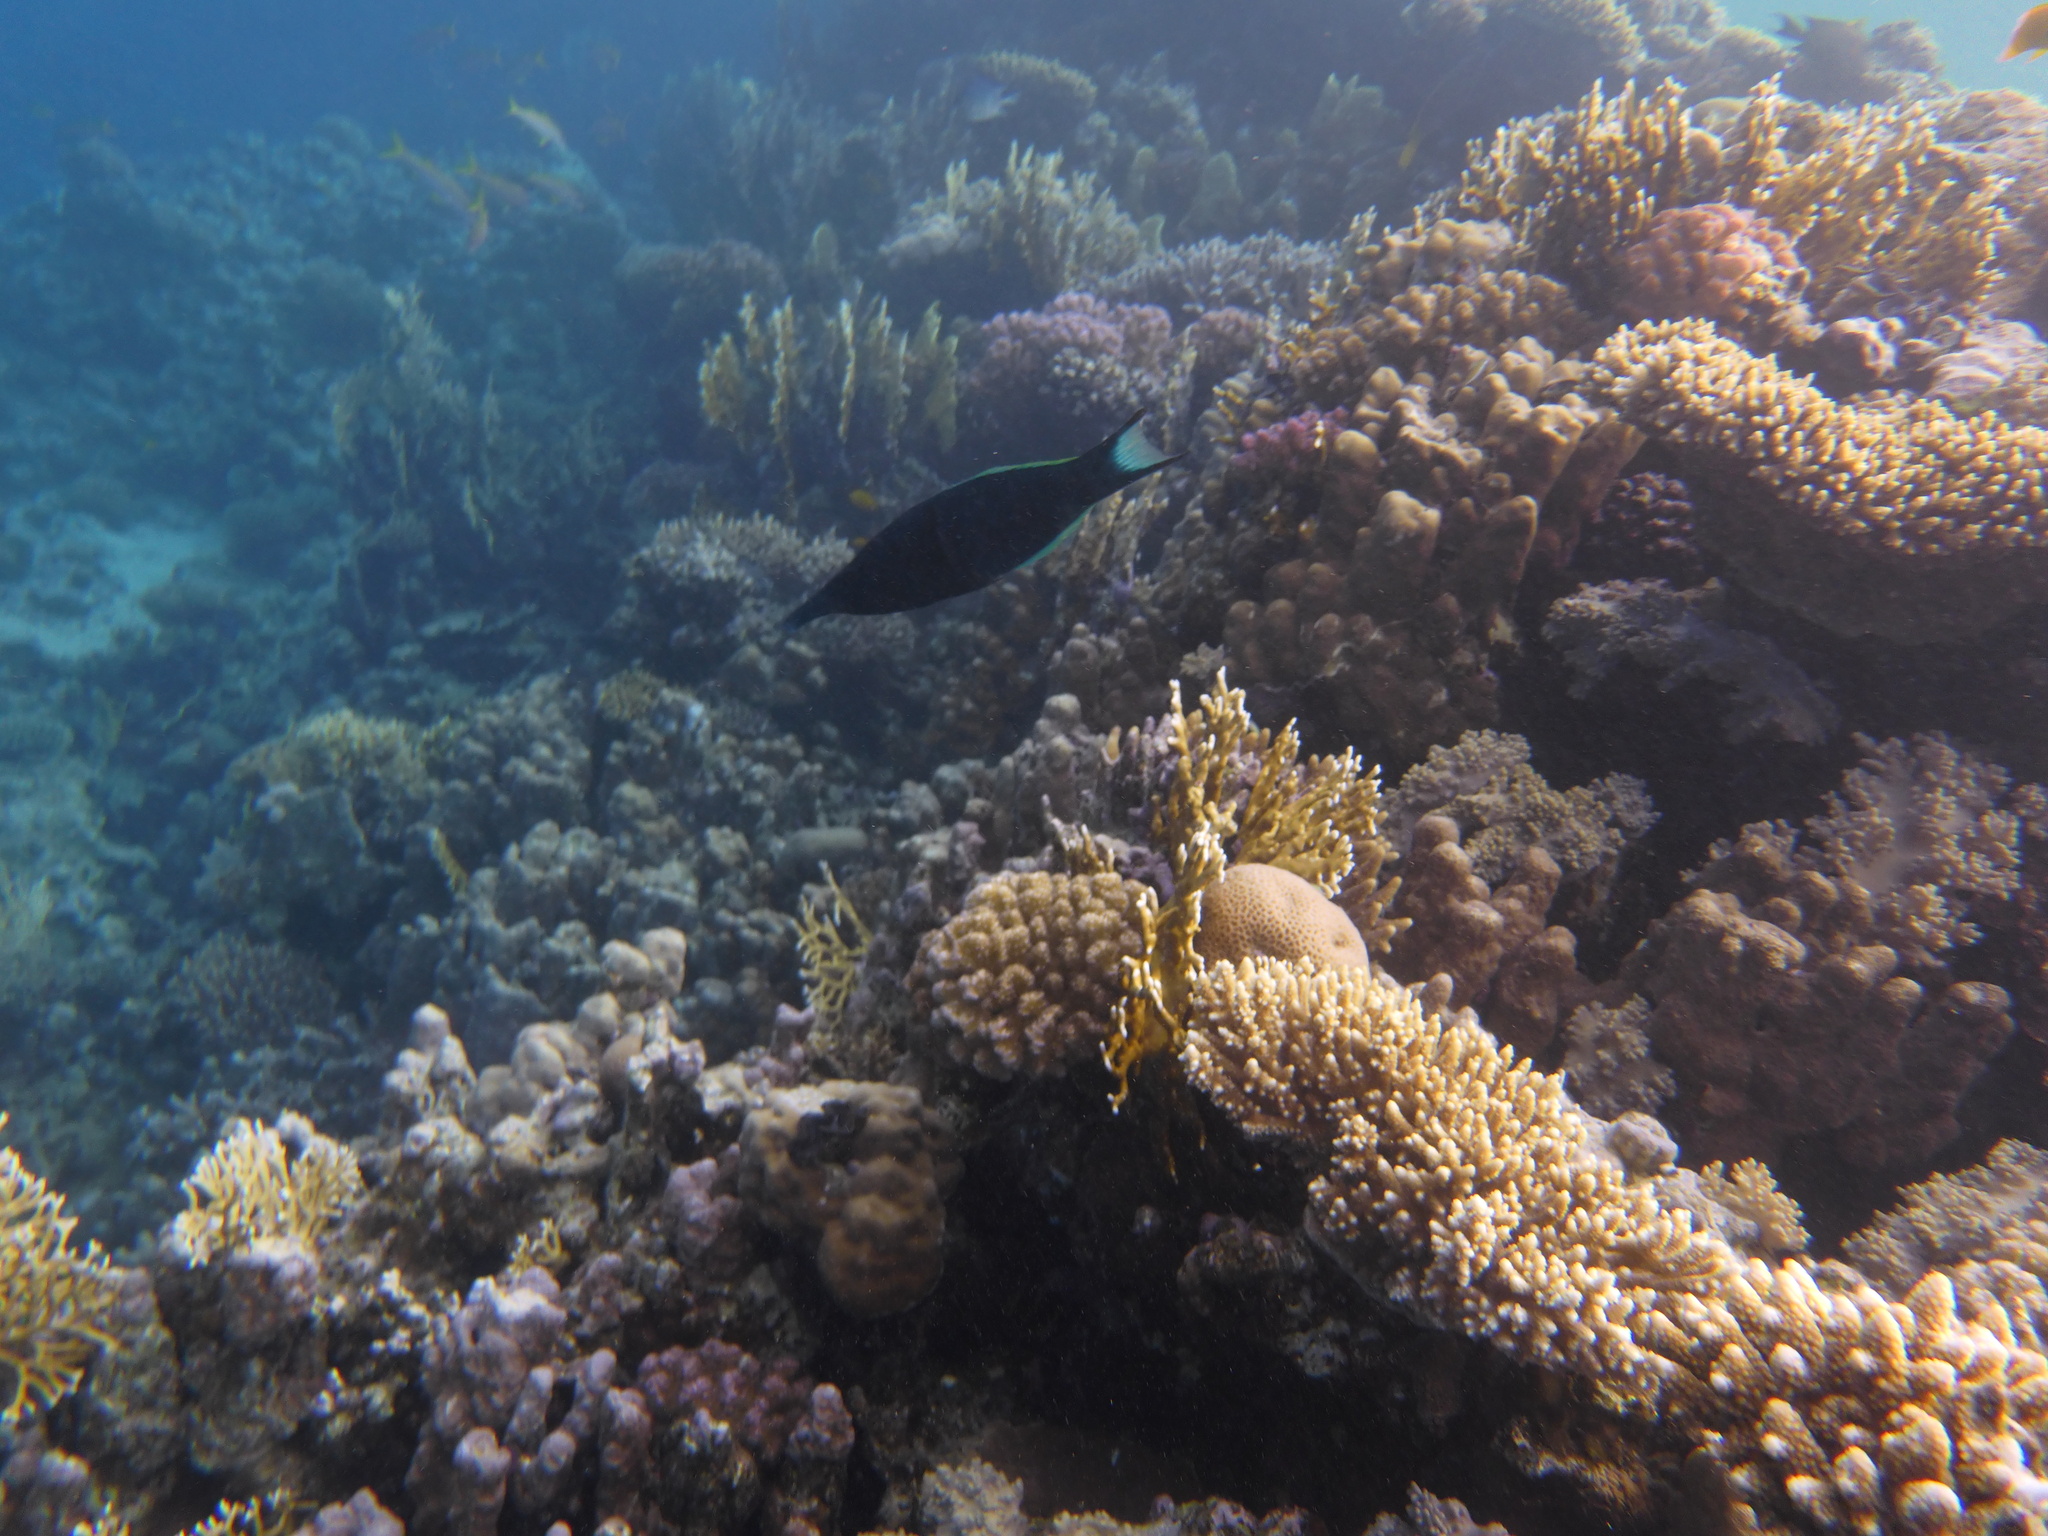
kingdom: Animalia
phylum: Chordata
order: Perciformes
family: Labridae
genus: Gomphosus
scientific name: Gomphosus klunzingeri
